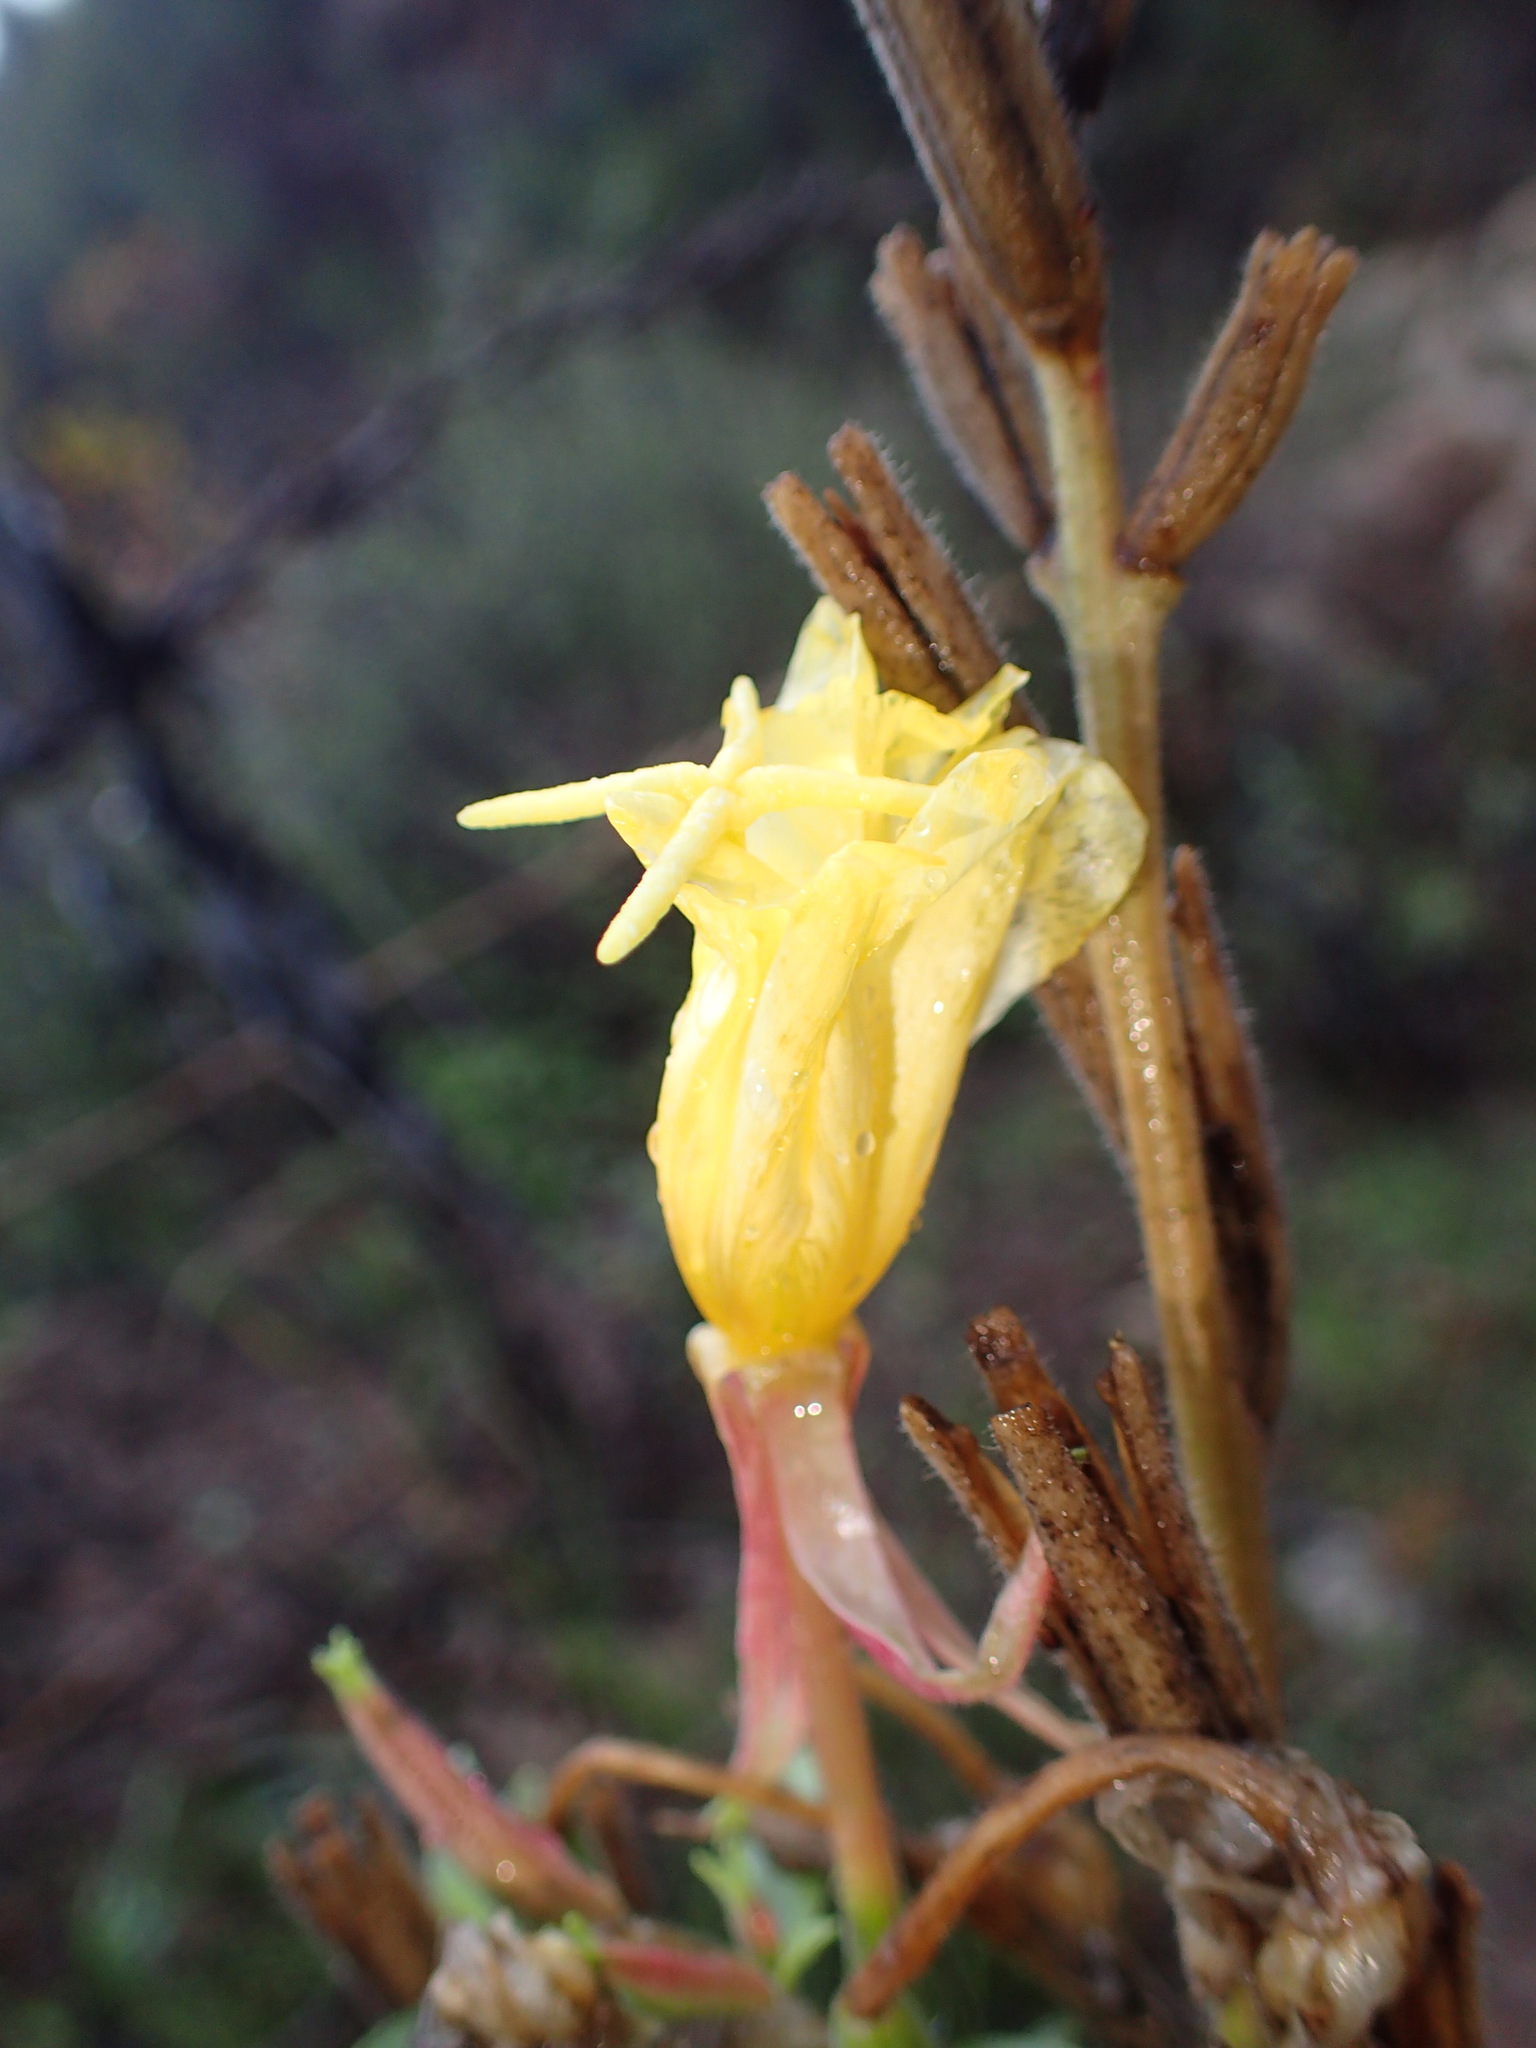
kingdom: Plantae
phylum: Tracheophyta
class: Magnoliopsida
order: Myrtales
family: Onagraceae
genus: Oenothera
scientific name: Oenothera elata
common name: Hooker's evening-primrose
